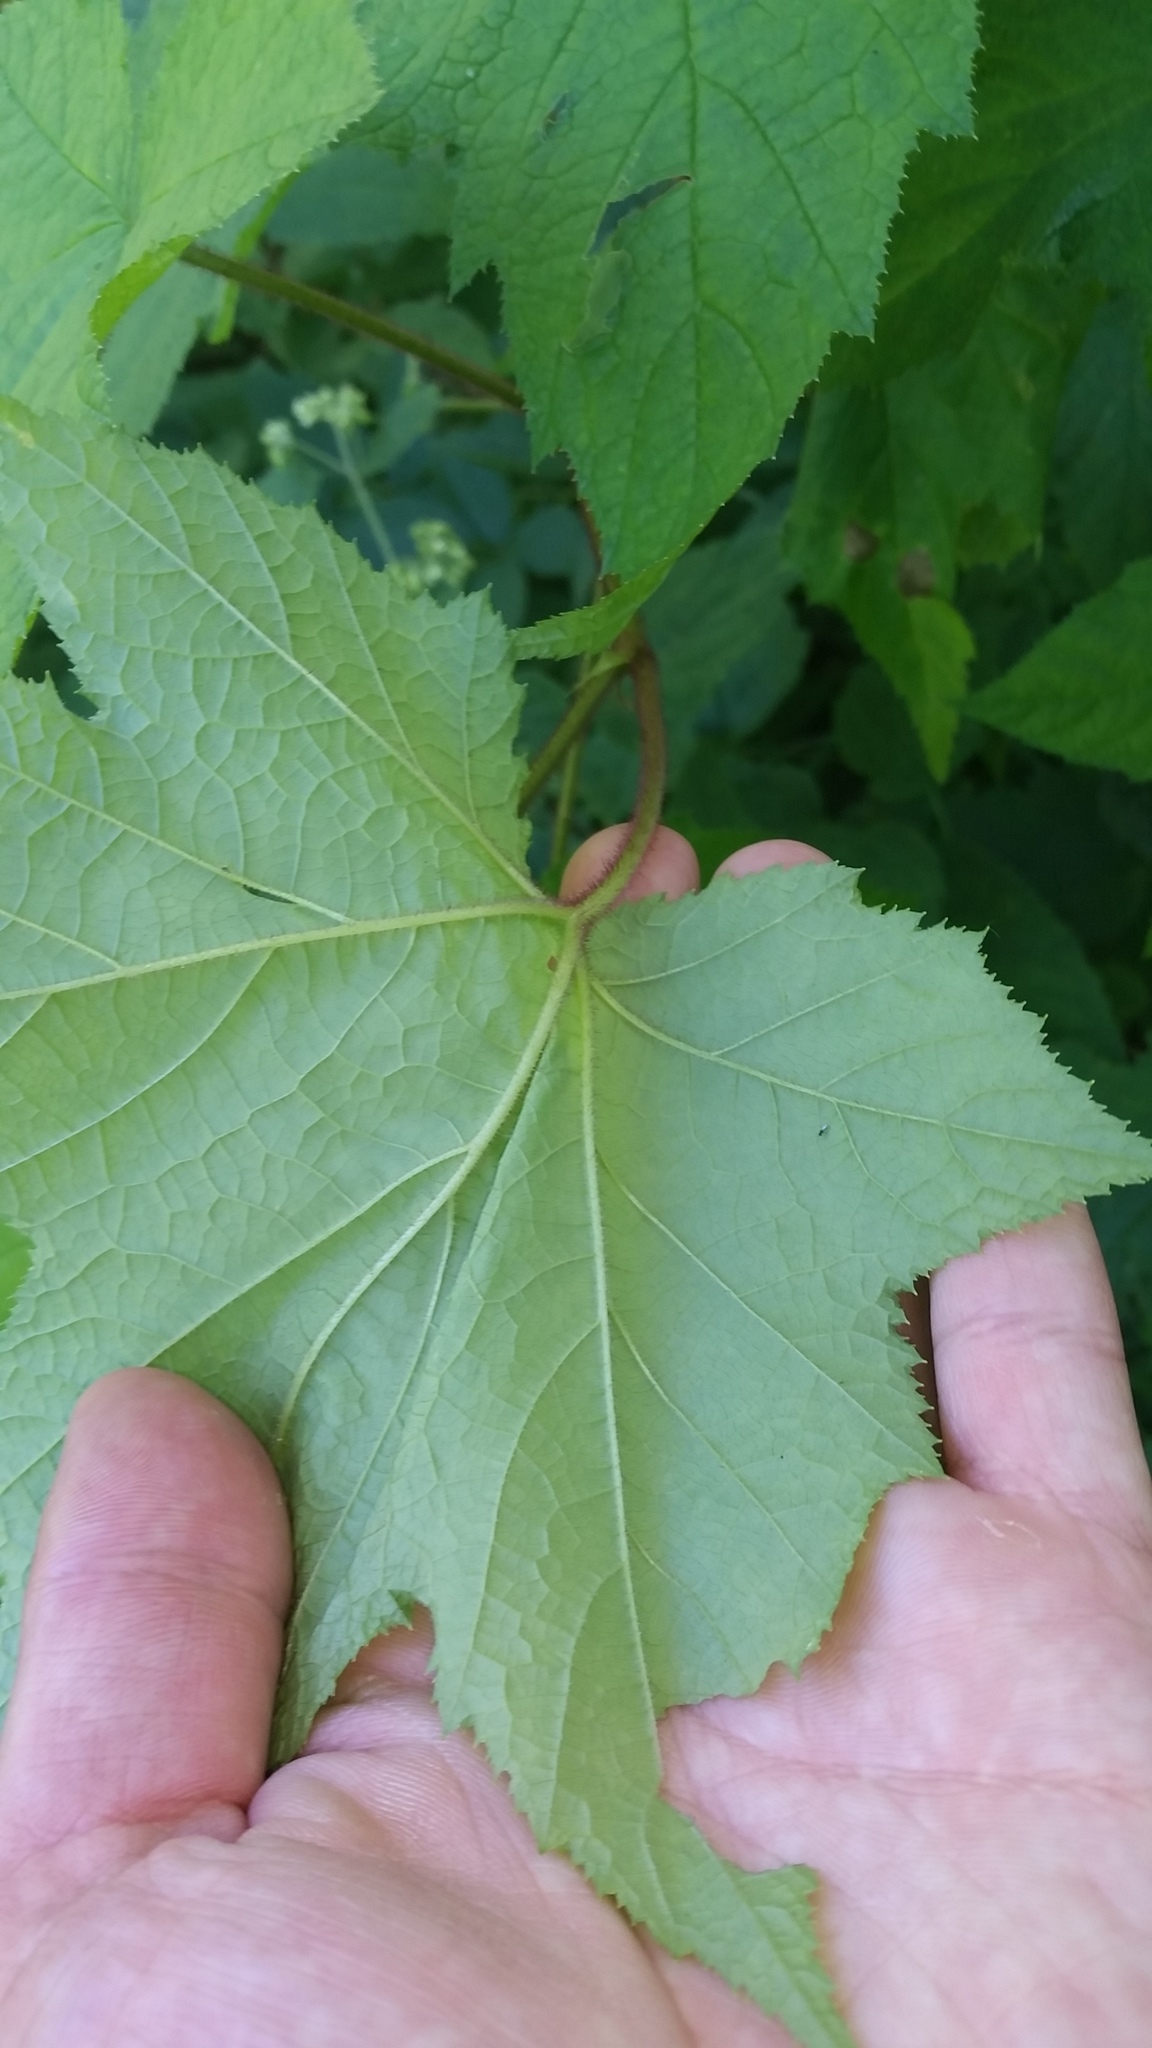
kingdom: Plantae
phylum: Tracheophyta
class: Magnoliopsida
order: Rosales
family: Rosaceae
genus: Rubus
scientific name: Rubus odoratus
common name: Purple-flowered raspberry
